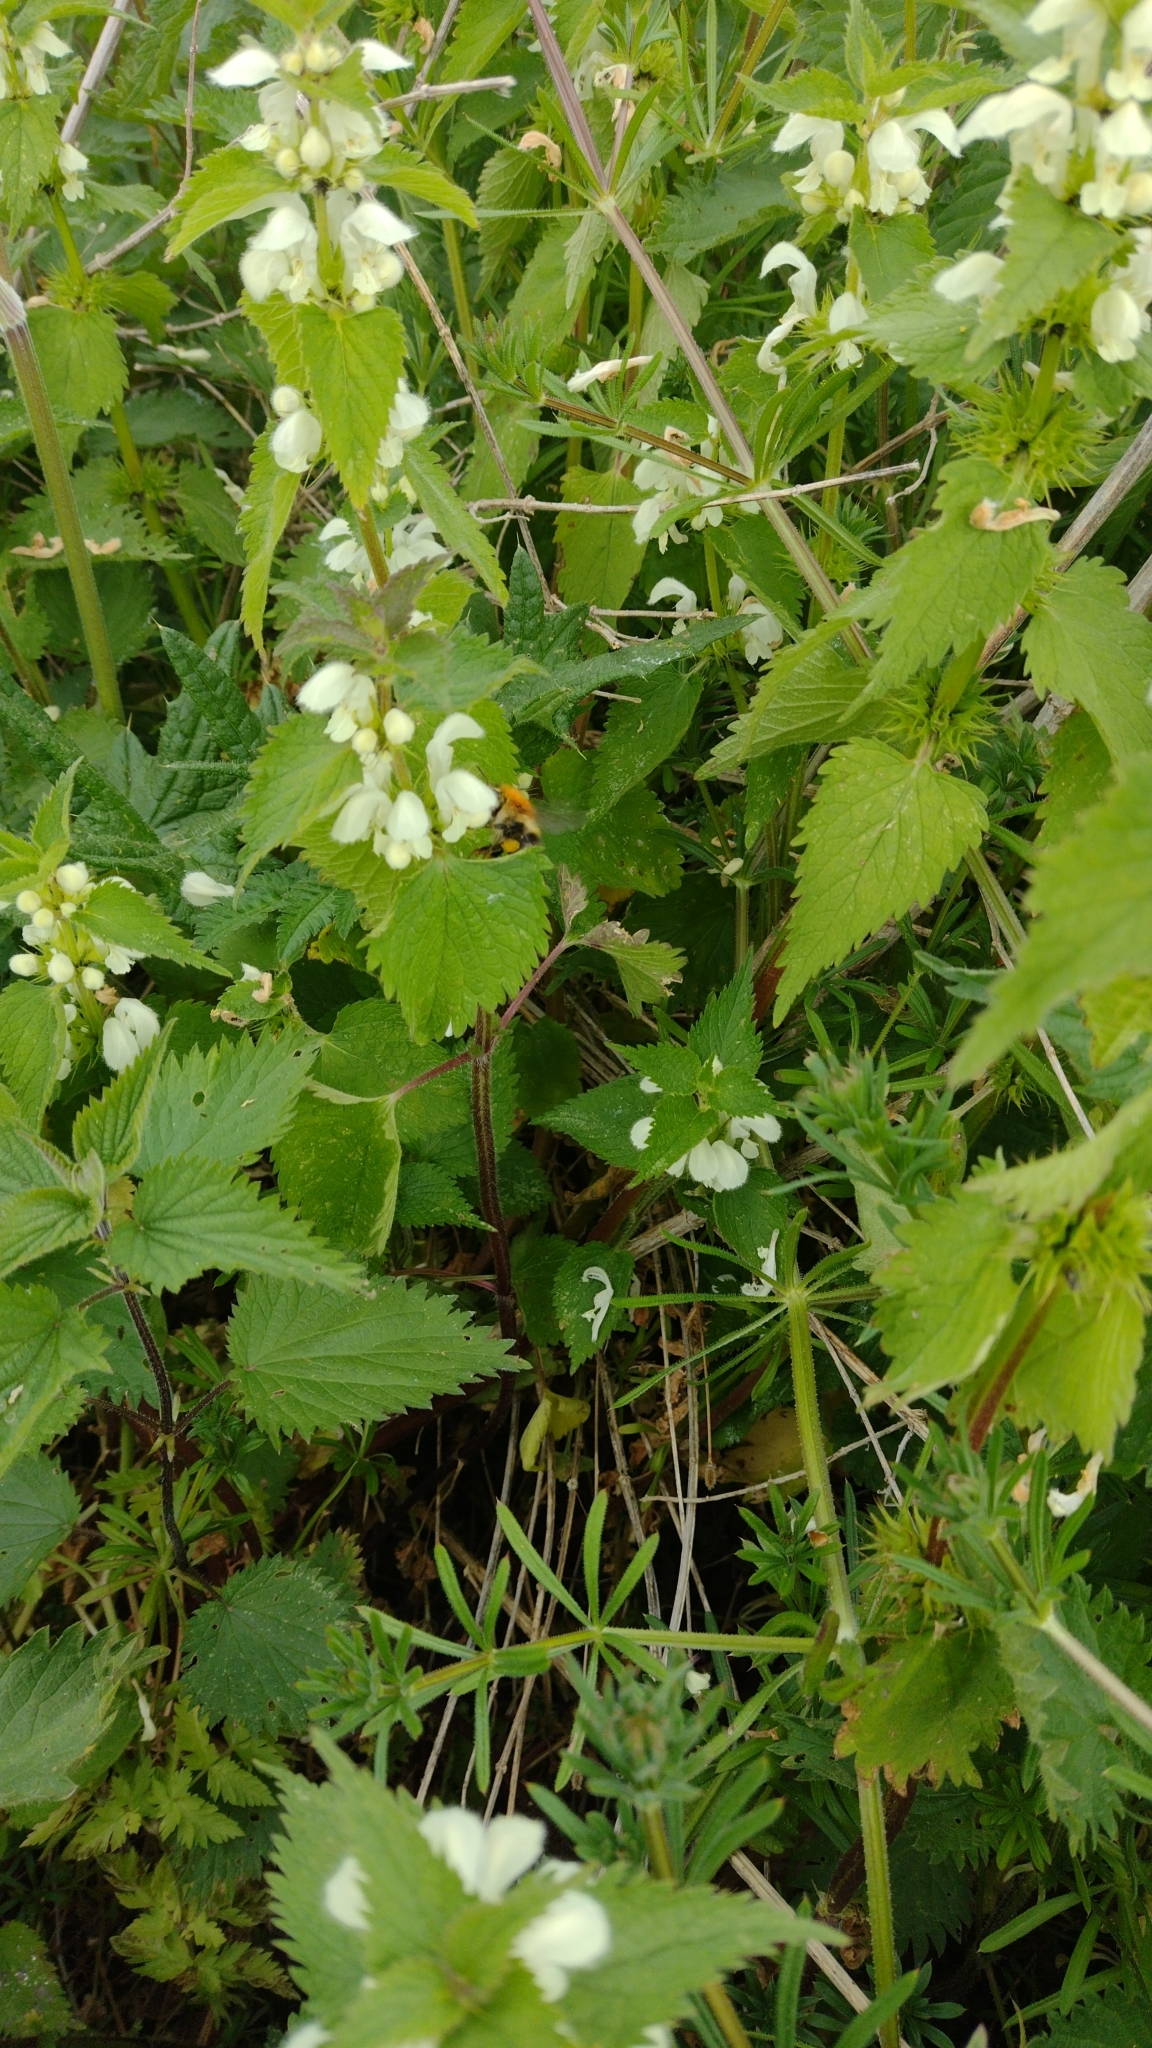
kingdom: Plantae
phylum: Tracheophyta
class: Magnoliopsida
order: Lamiales
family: Lamiaceae
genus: Lamium
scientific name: Lamium album
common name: White dead-nettle
